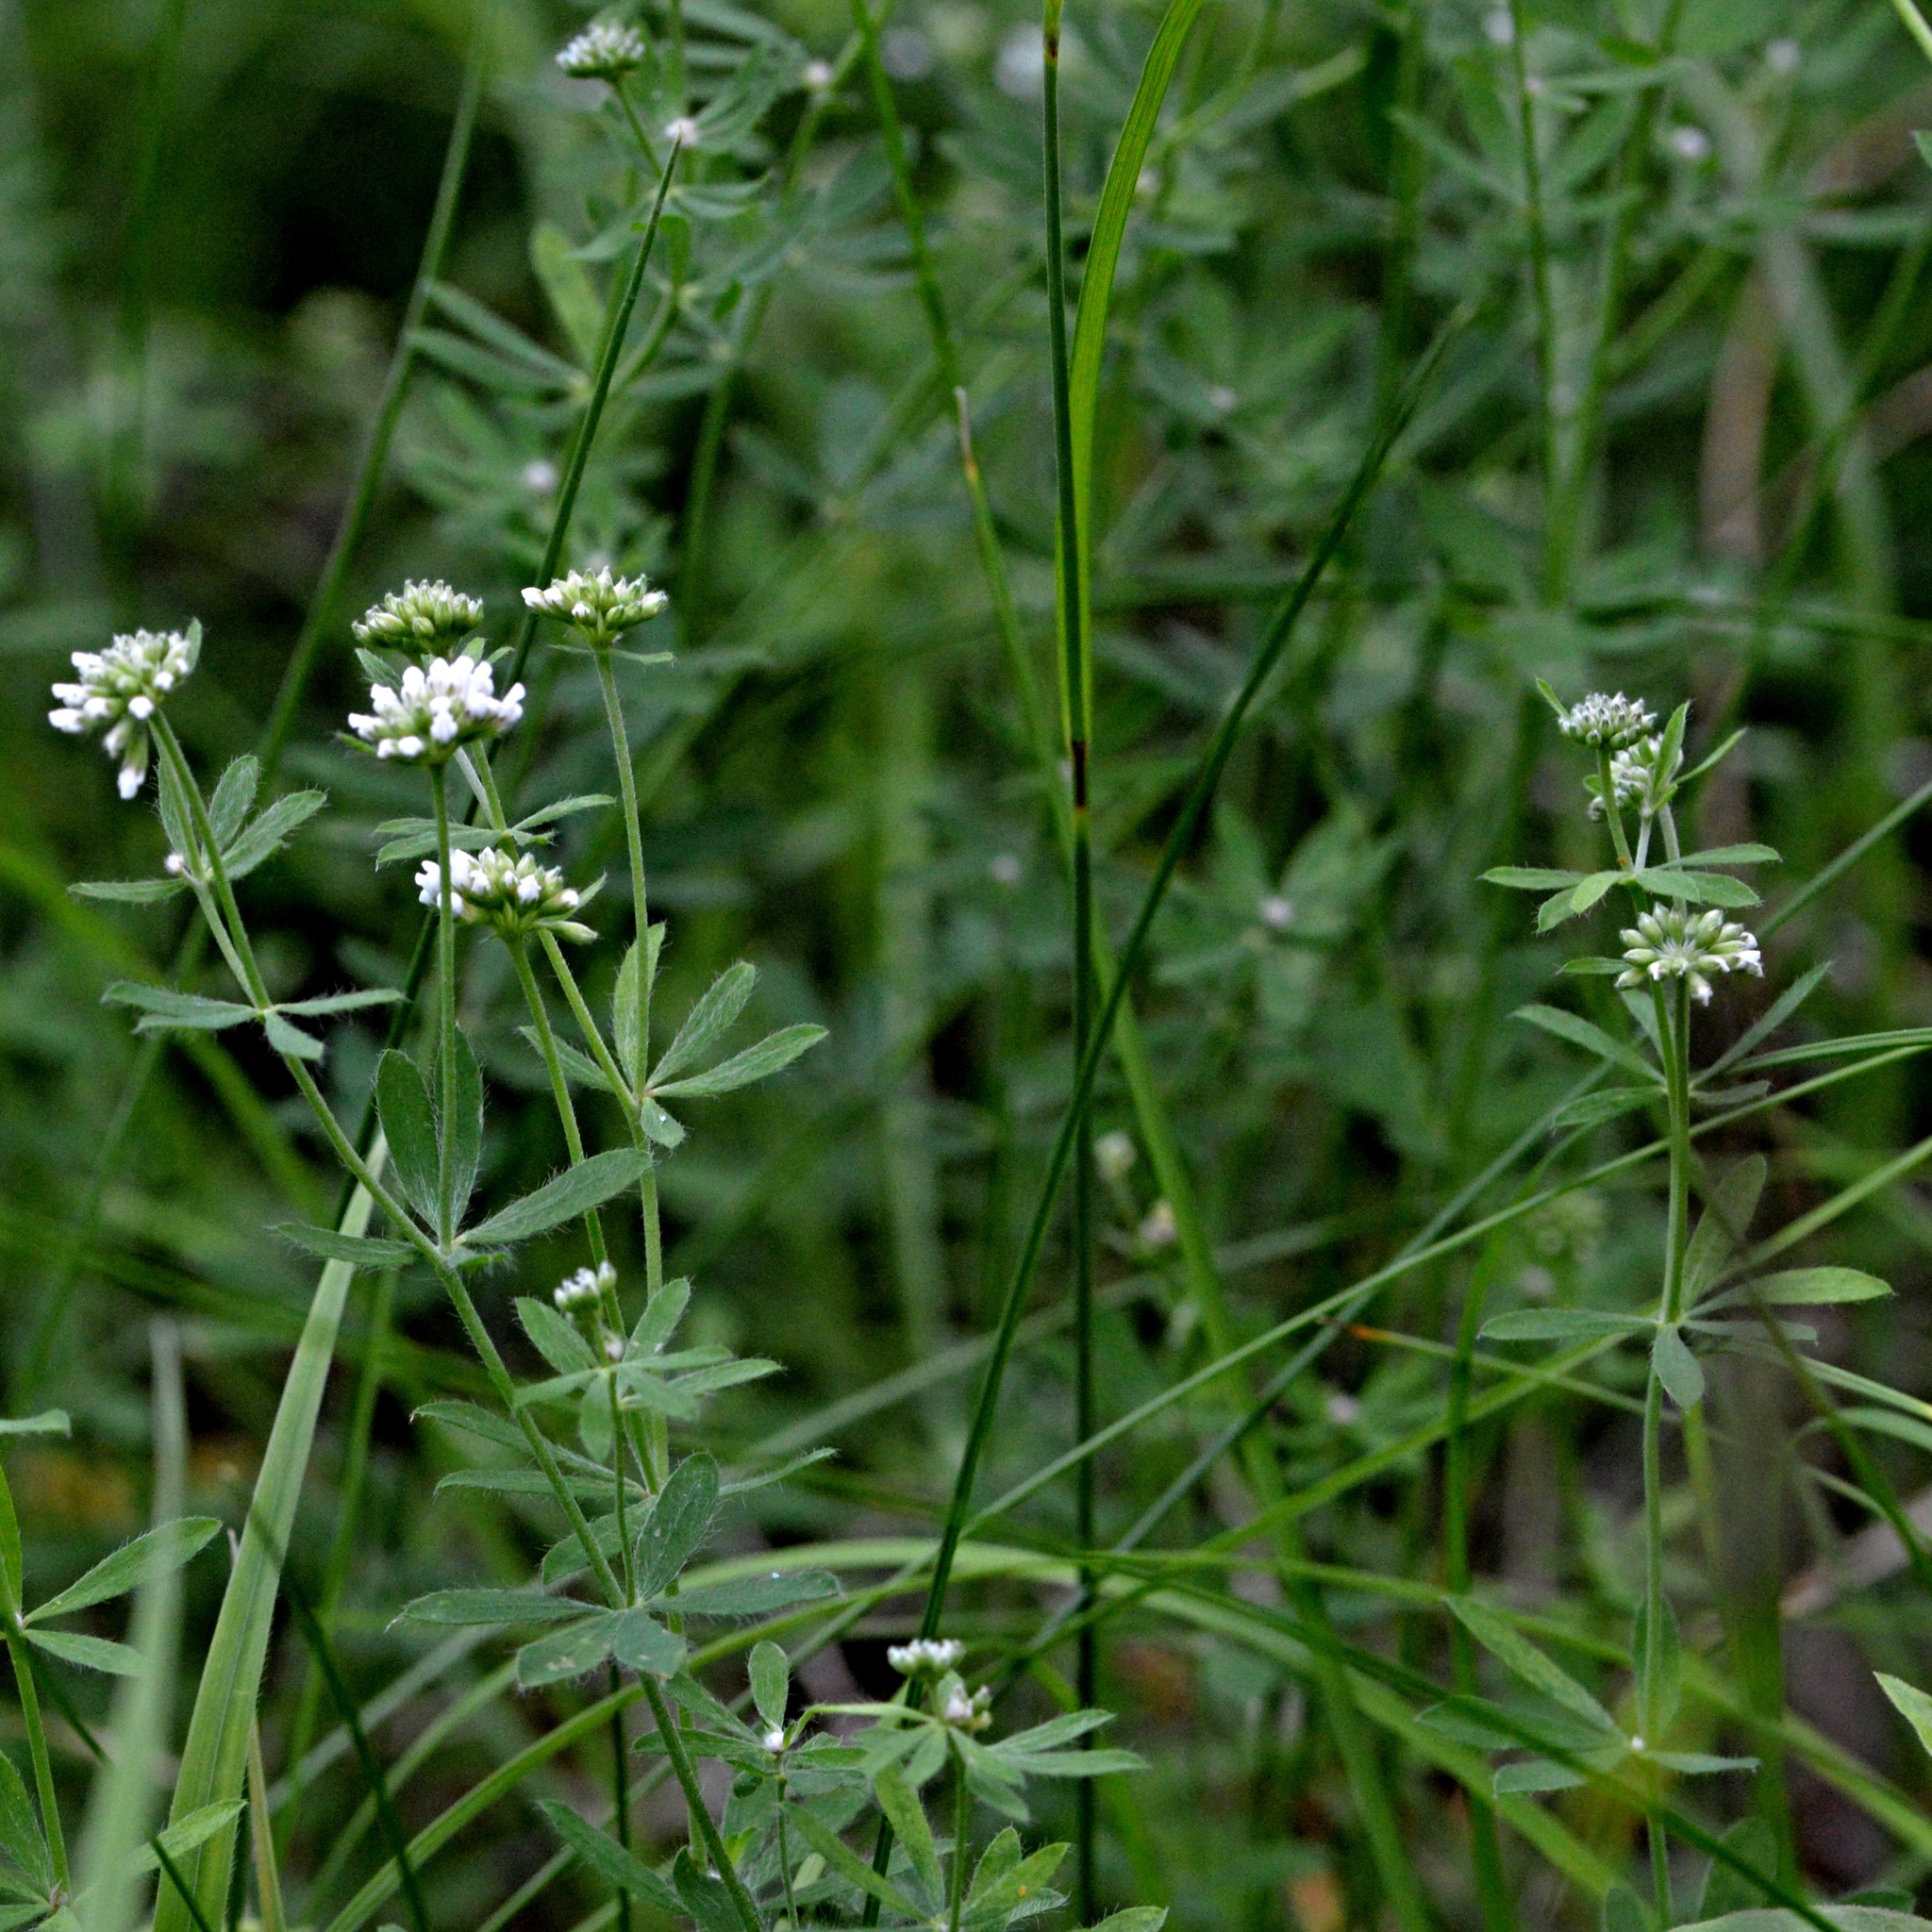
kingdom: Plantae
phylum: Tracheophyta
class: Magnoliopsida
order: Fabales
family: Fabaceae
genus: Lotus
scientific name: Lotus herbaceus
